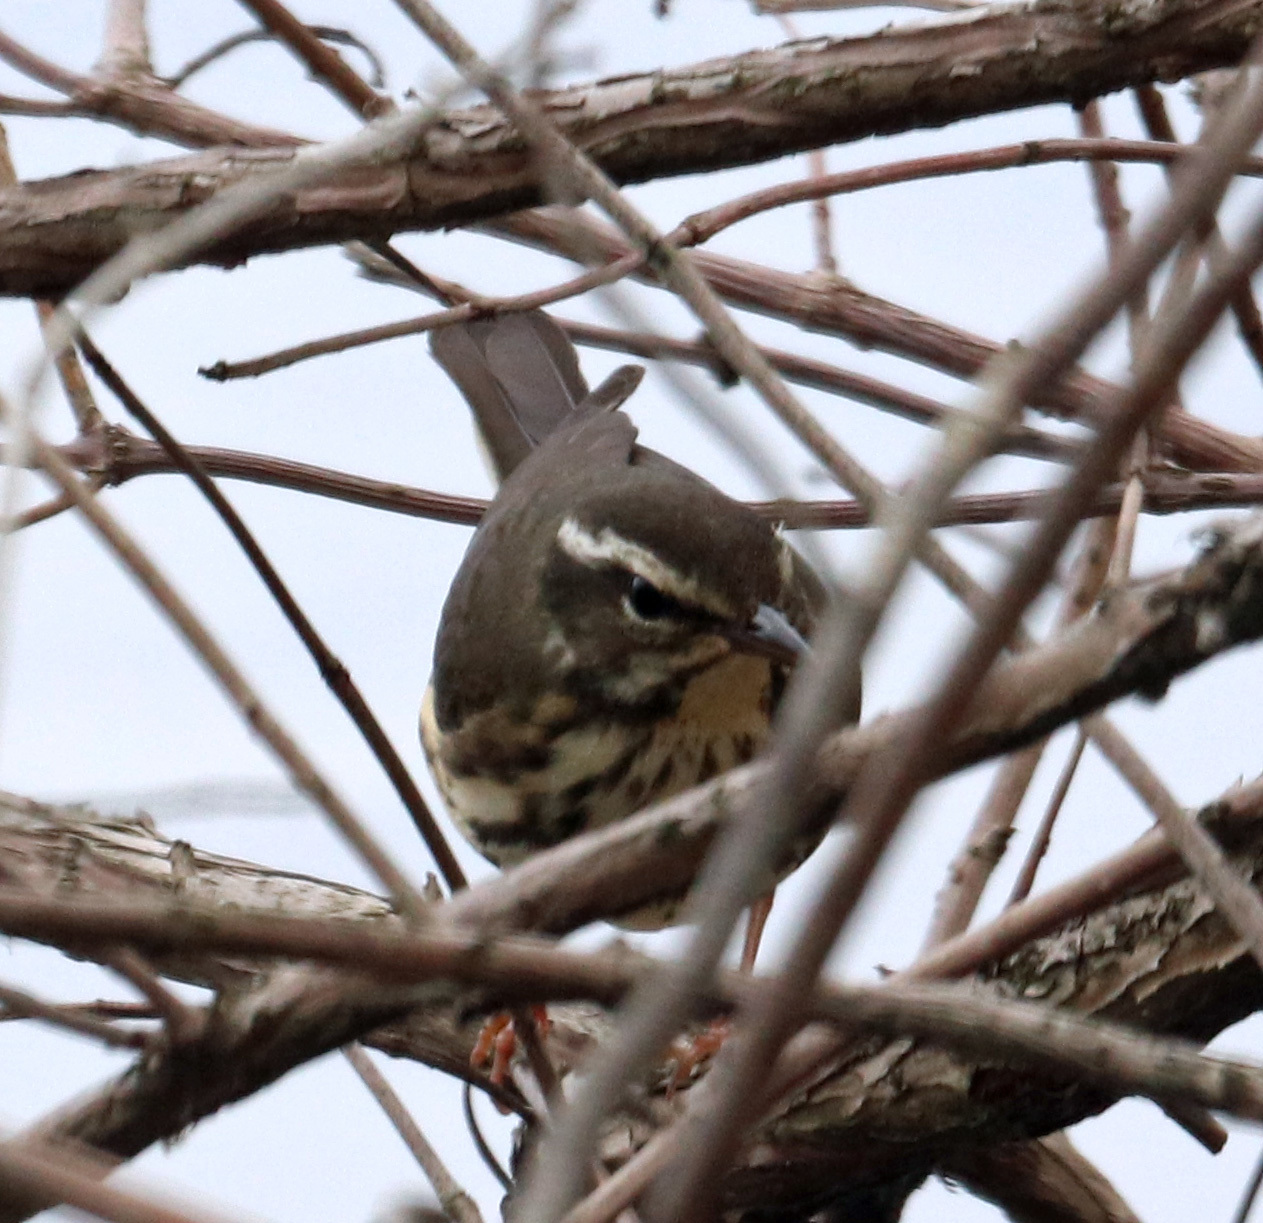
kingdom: Animalia
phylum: Chordata
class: Aves
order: Passeriformes
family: Parulidae
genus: Parkesia
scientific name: Parkesia motacilla
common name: Louisiana waterthrush
